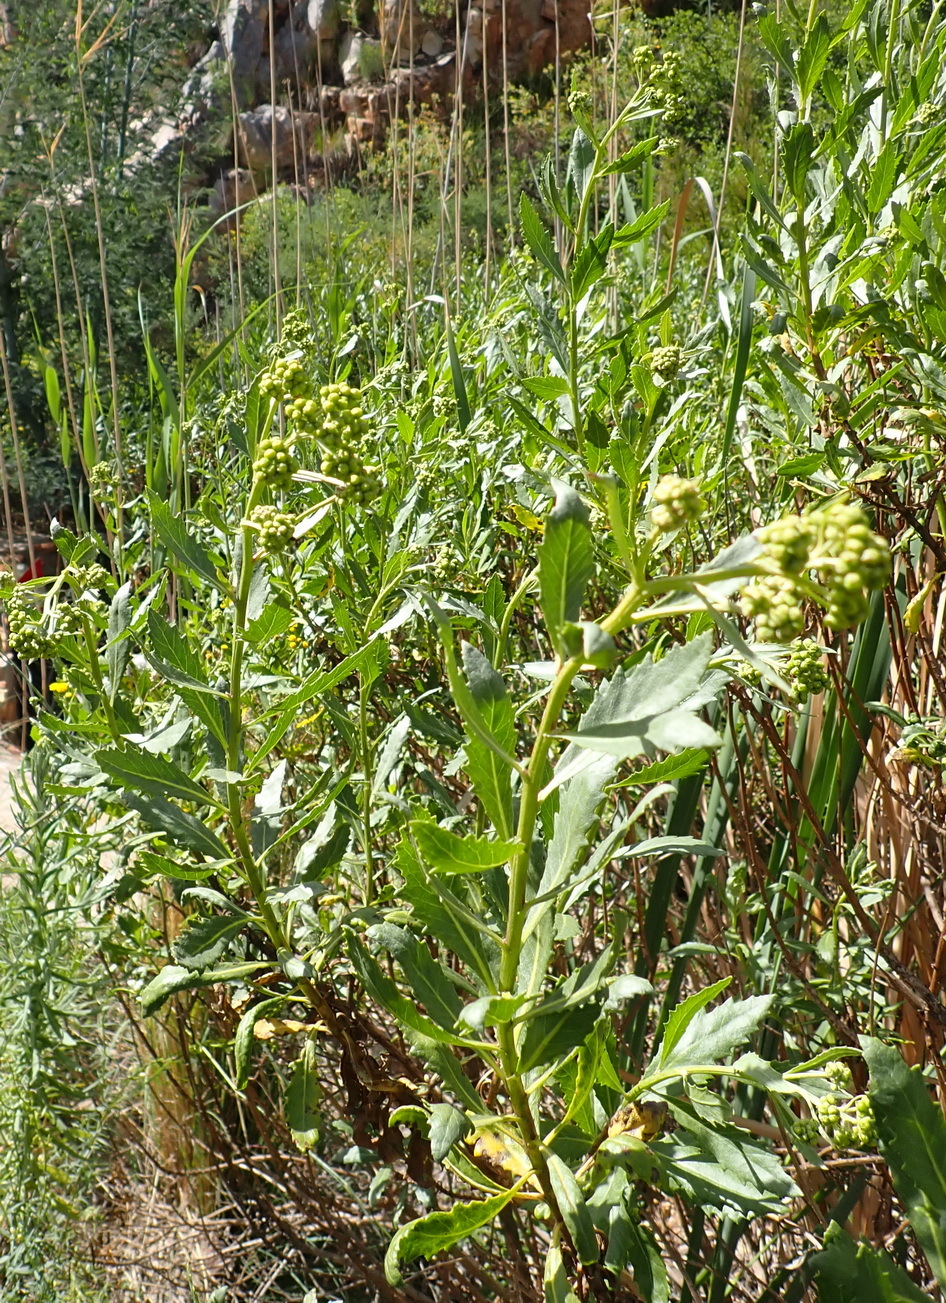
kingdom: Plantae
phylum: Tracheophyta
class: Magnoliopsida
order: Asterales
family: Asteraceae
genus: Nidorella
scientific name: Nidorella ivifolia
